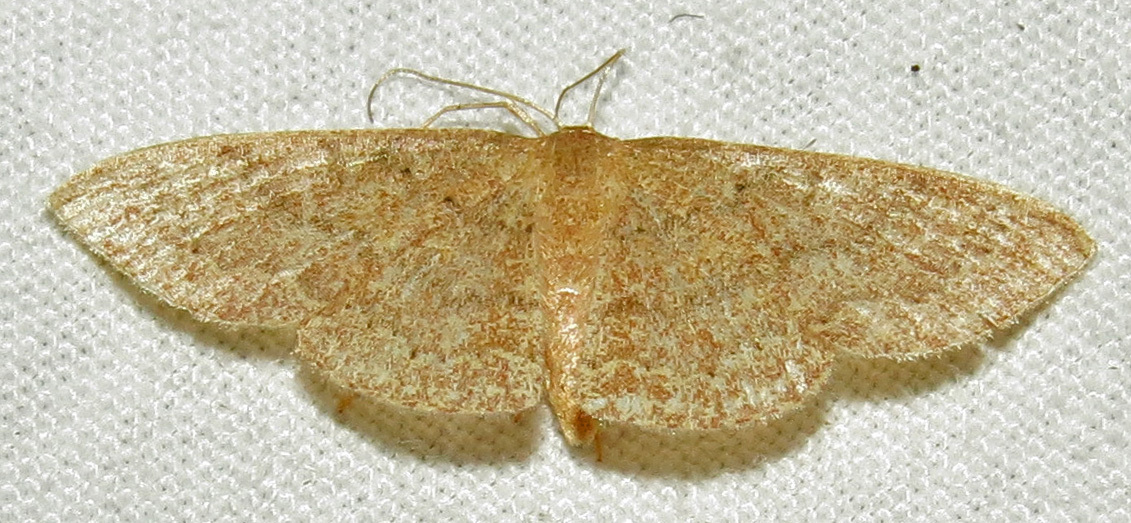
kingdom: Animalia
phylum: Arthropoda
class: Insecta
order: Lepidoptera
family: Geometridae
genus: Pleuroprucha
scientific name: Pleuroprucha insulsaria
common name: Common tan wave
